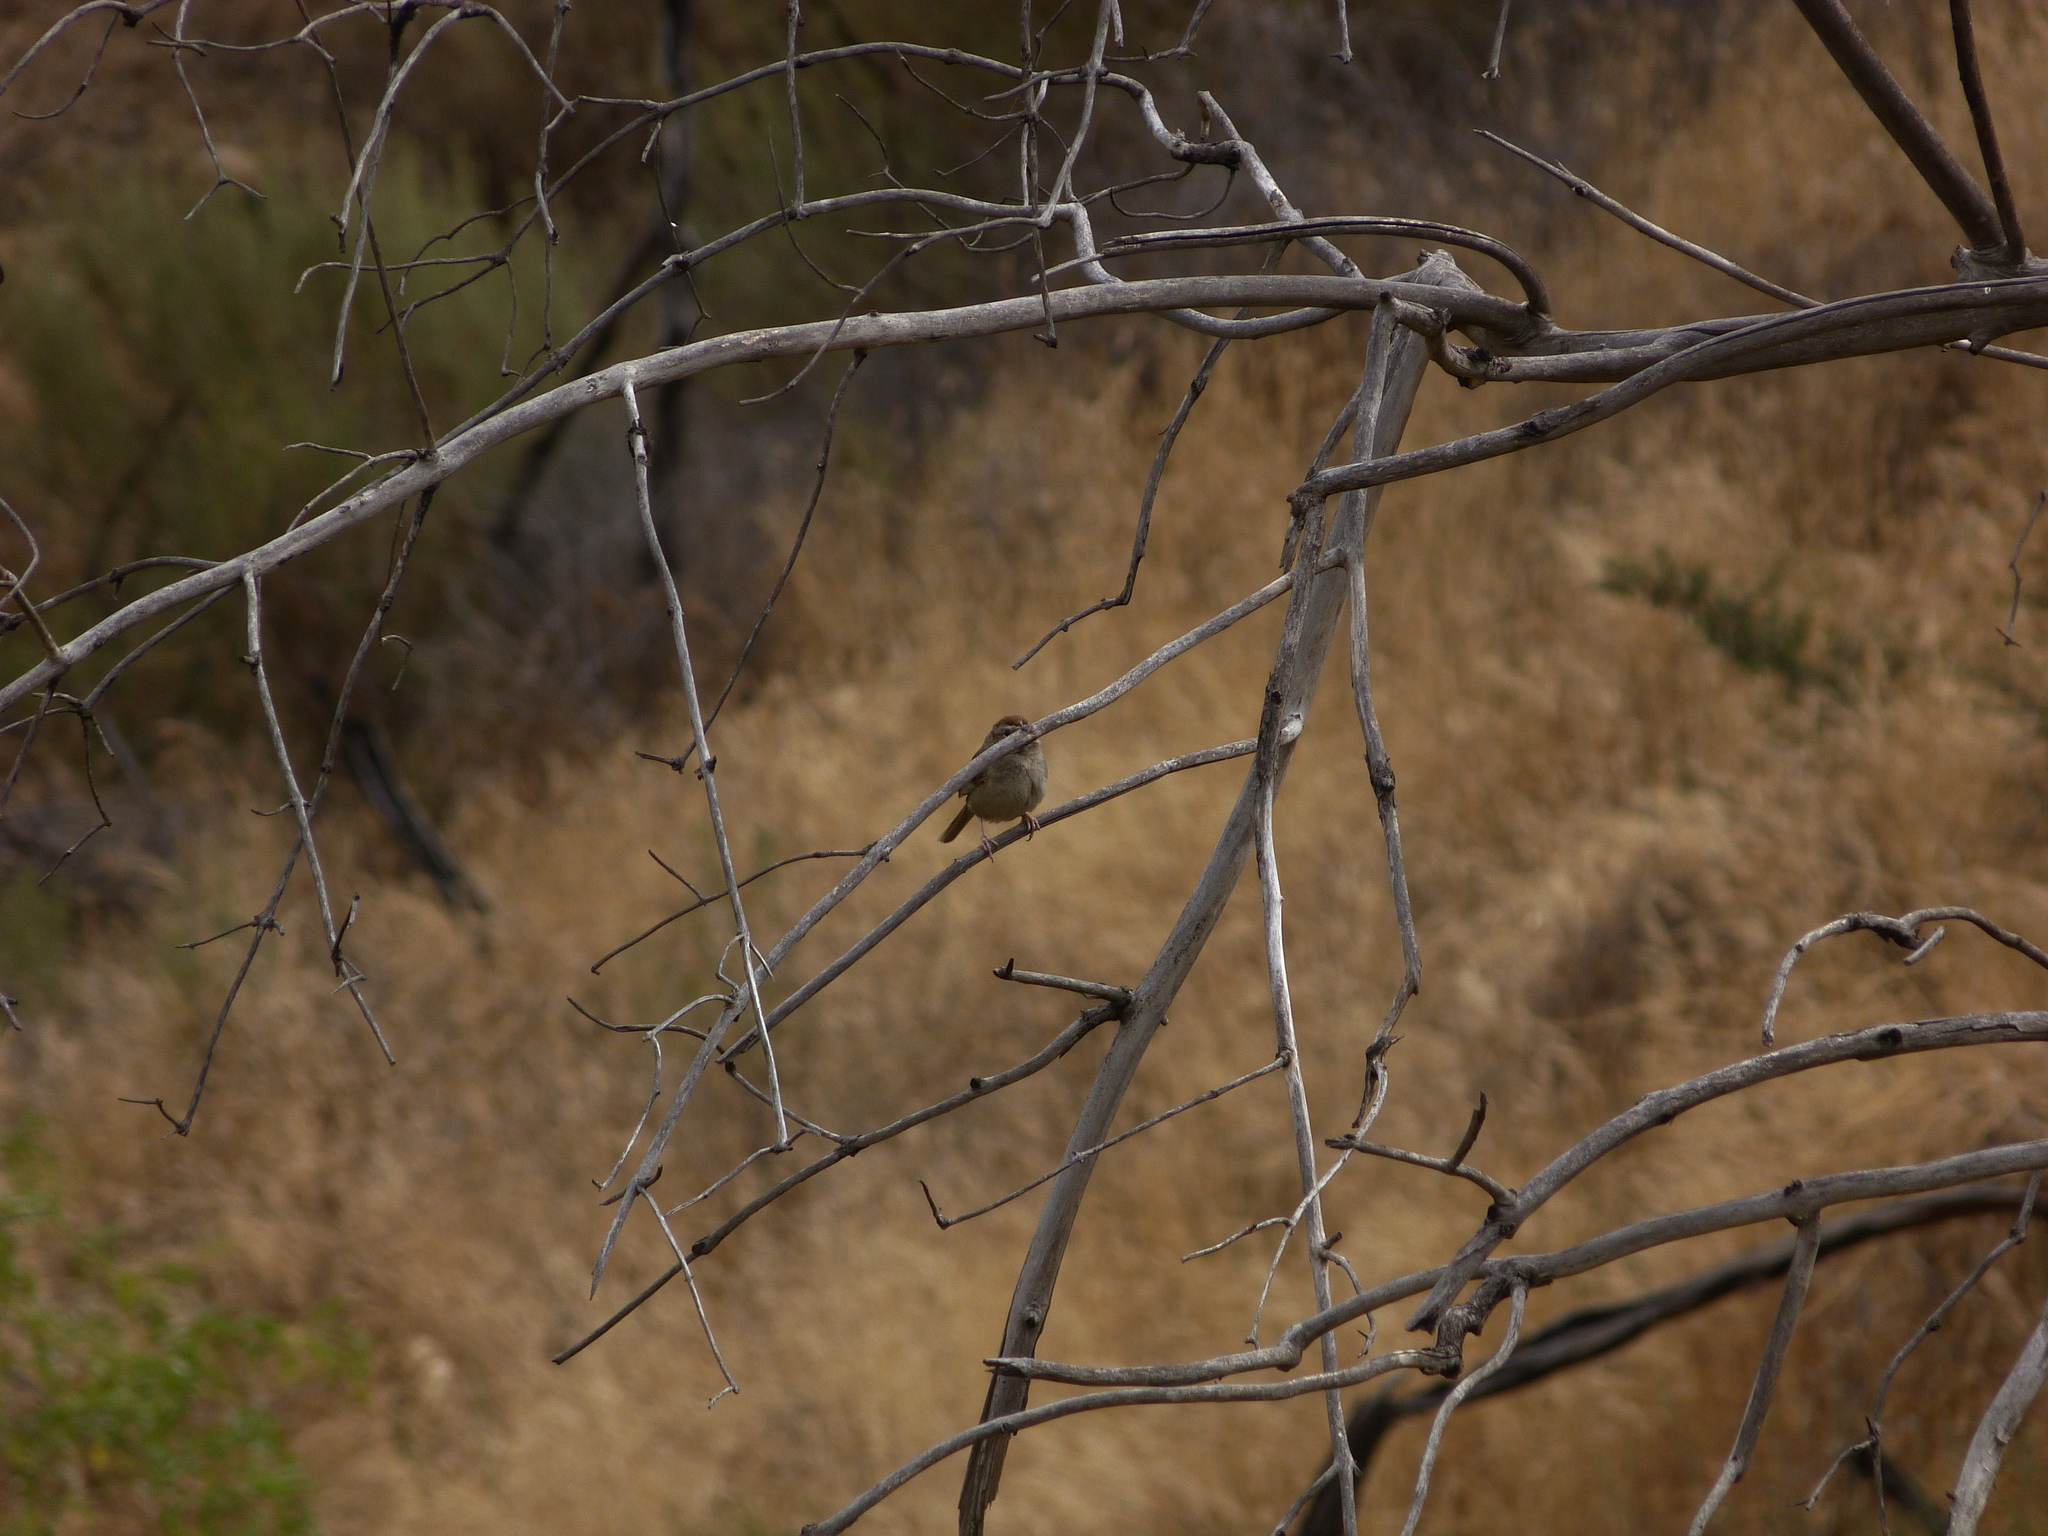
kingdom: Animalia
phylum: Chordata
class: Aves
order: Passeriformes
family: Passerellidae
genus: Aimophila
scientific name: Aimophila ruficeps
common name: Rufous-crowned sparrow
